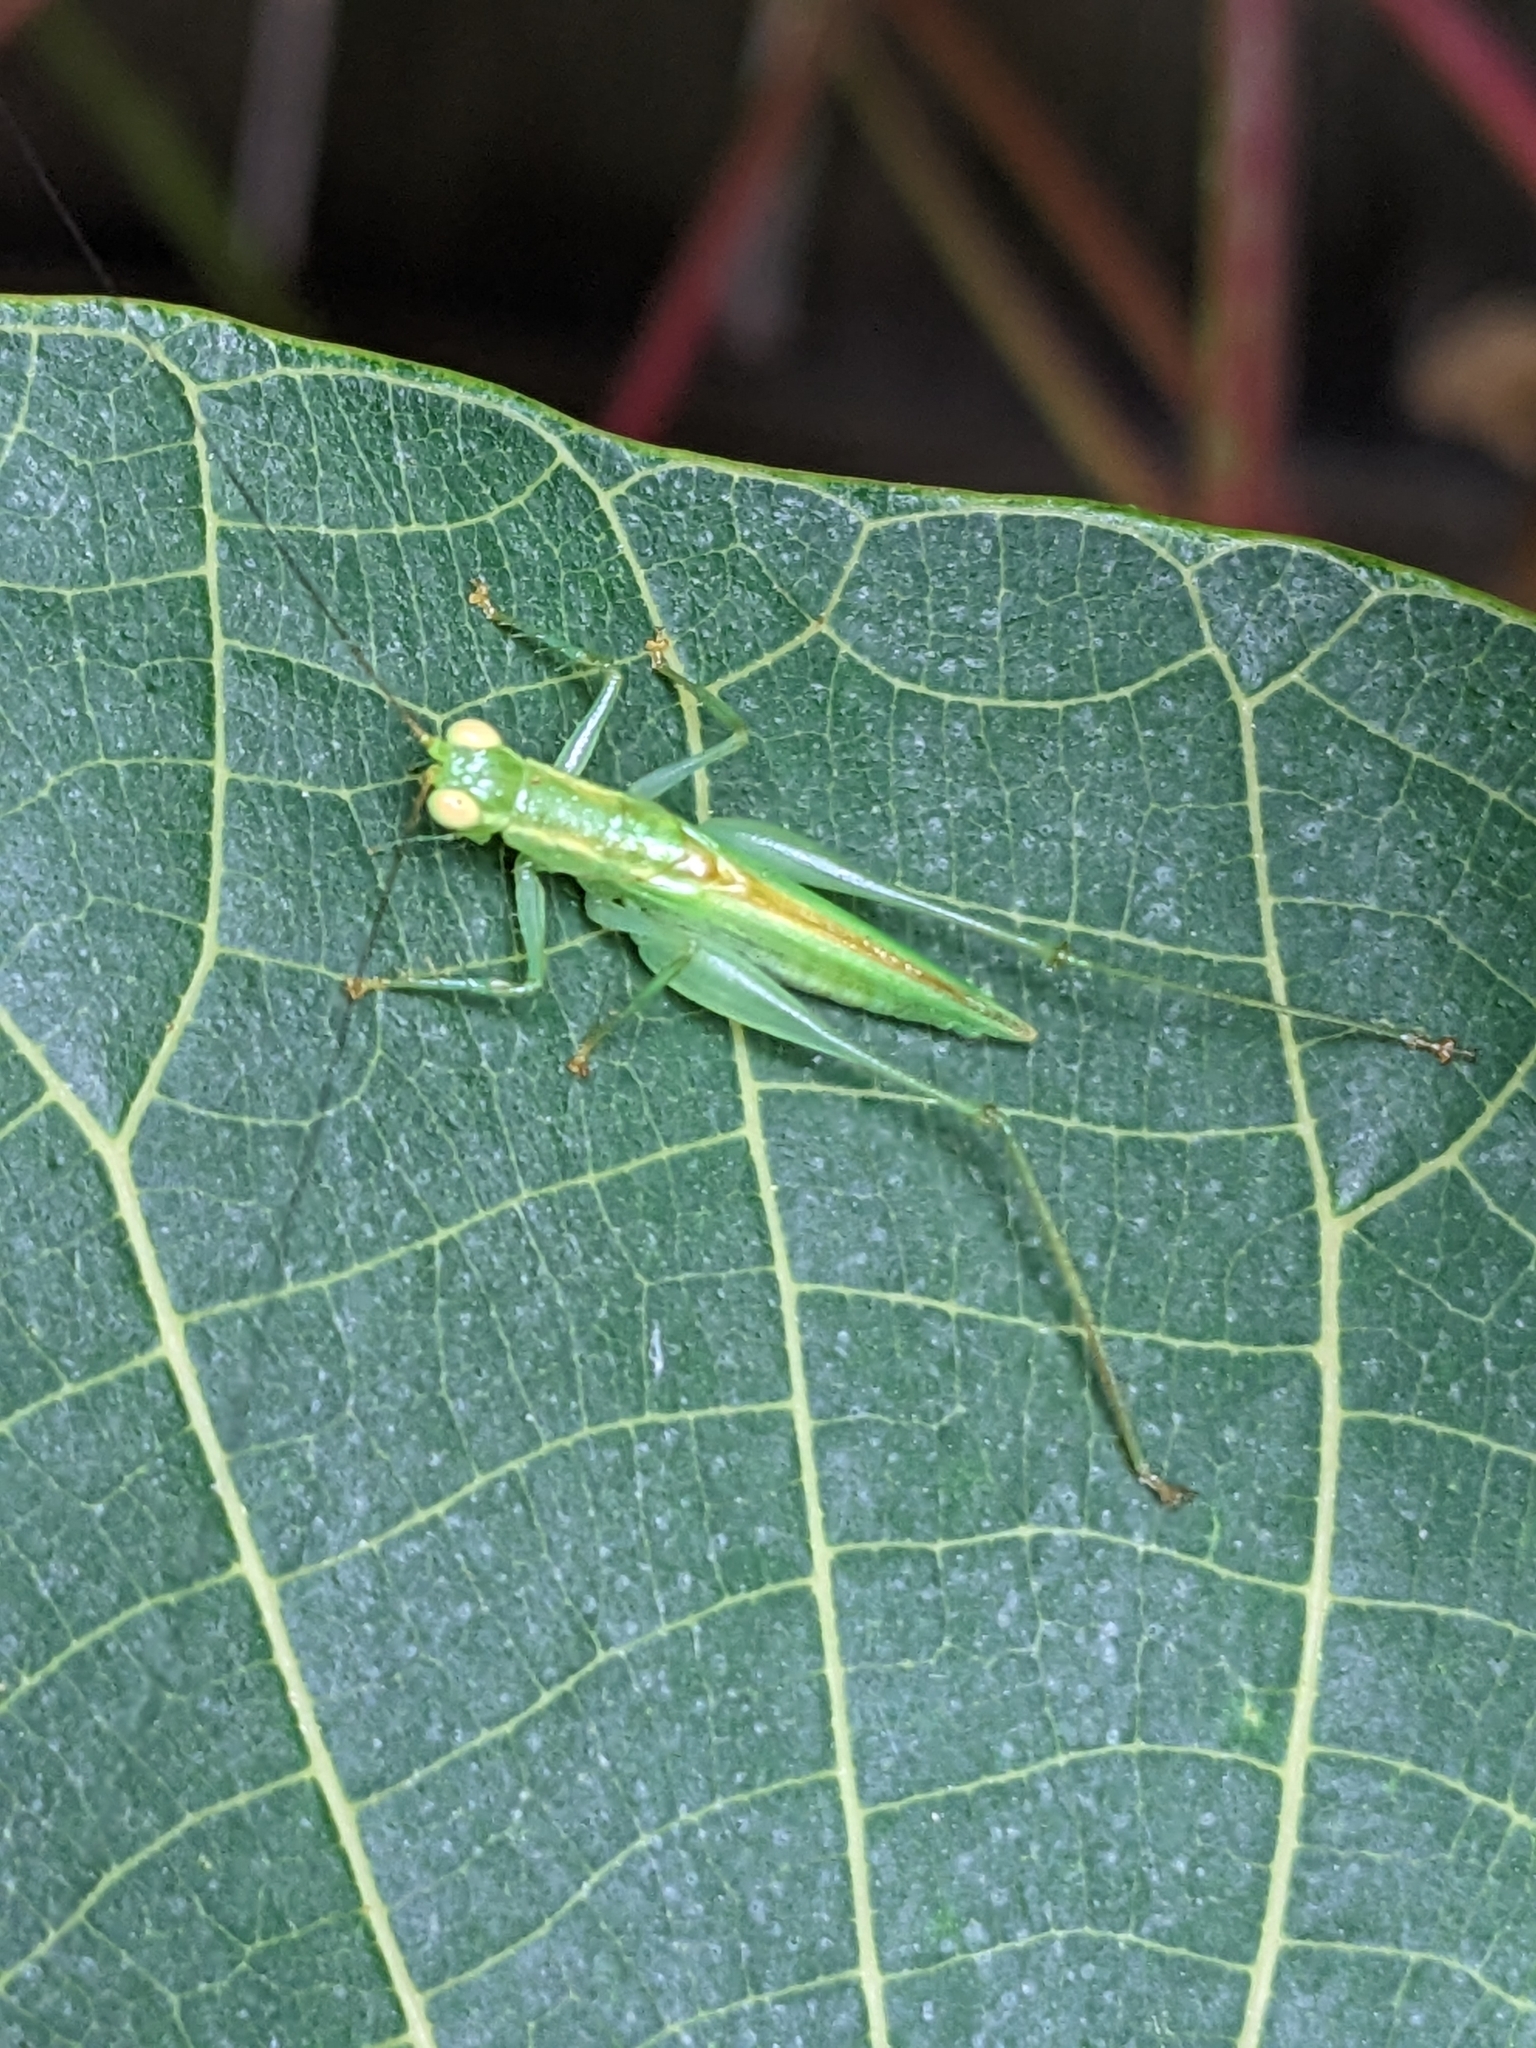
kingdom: Animalia
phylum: Arthropoda
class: Insecta
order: Orthoptera
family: Tettigoniidae
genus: Austrophlugis
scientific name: Austrophlugis debaari
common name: Debaar's swayer
